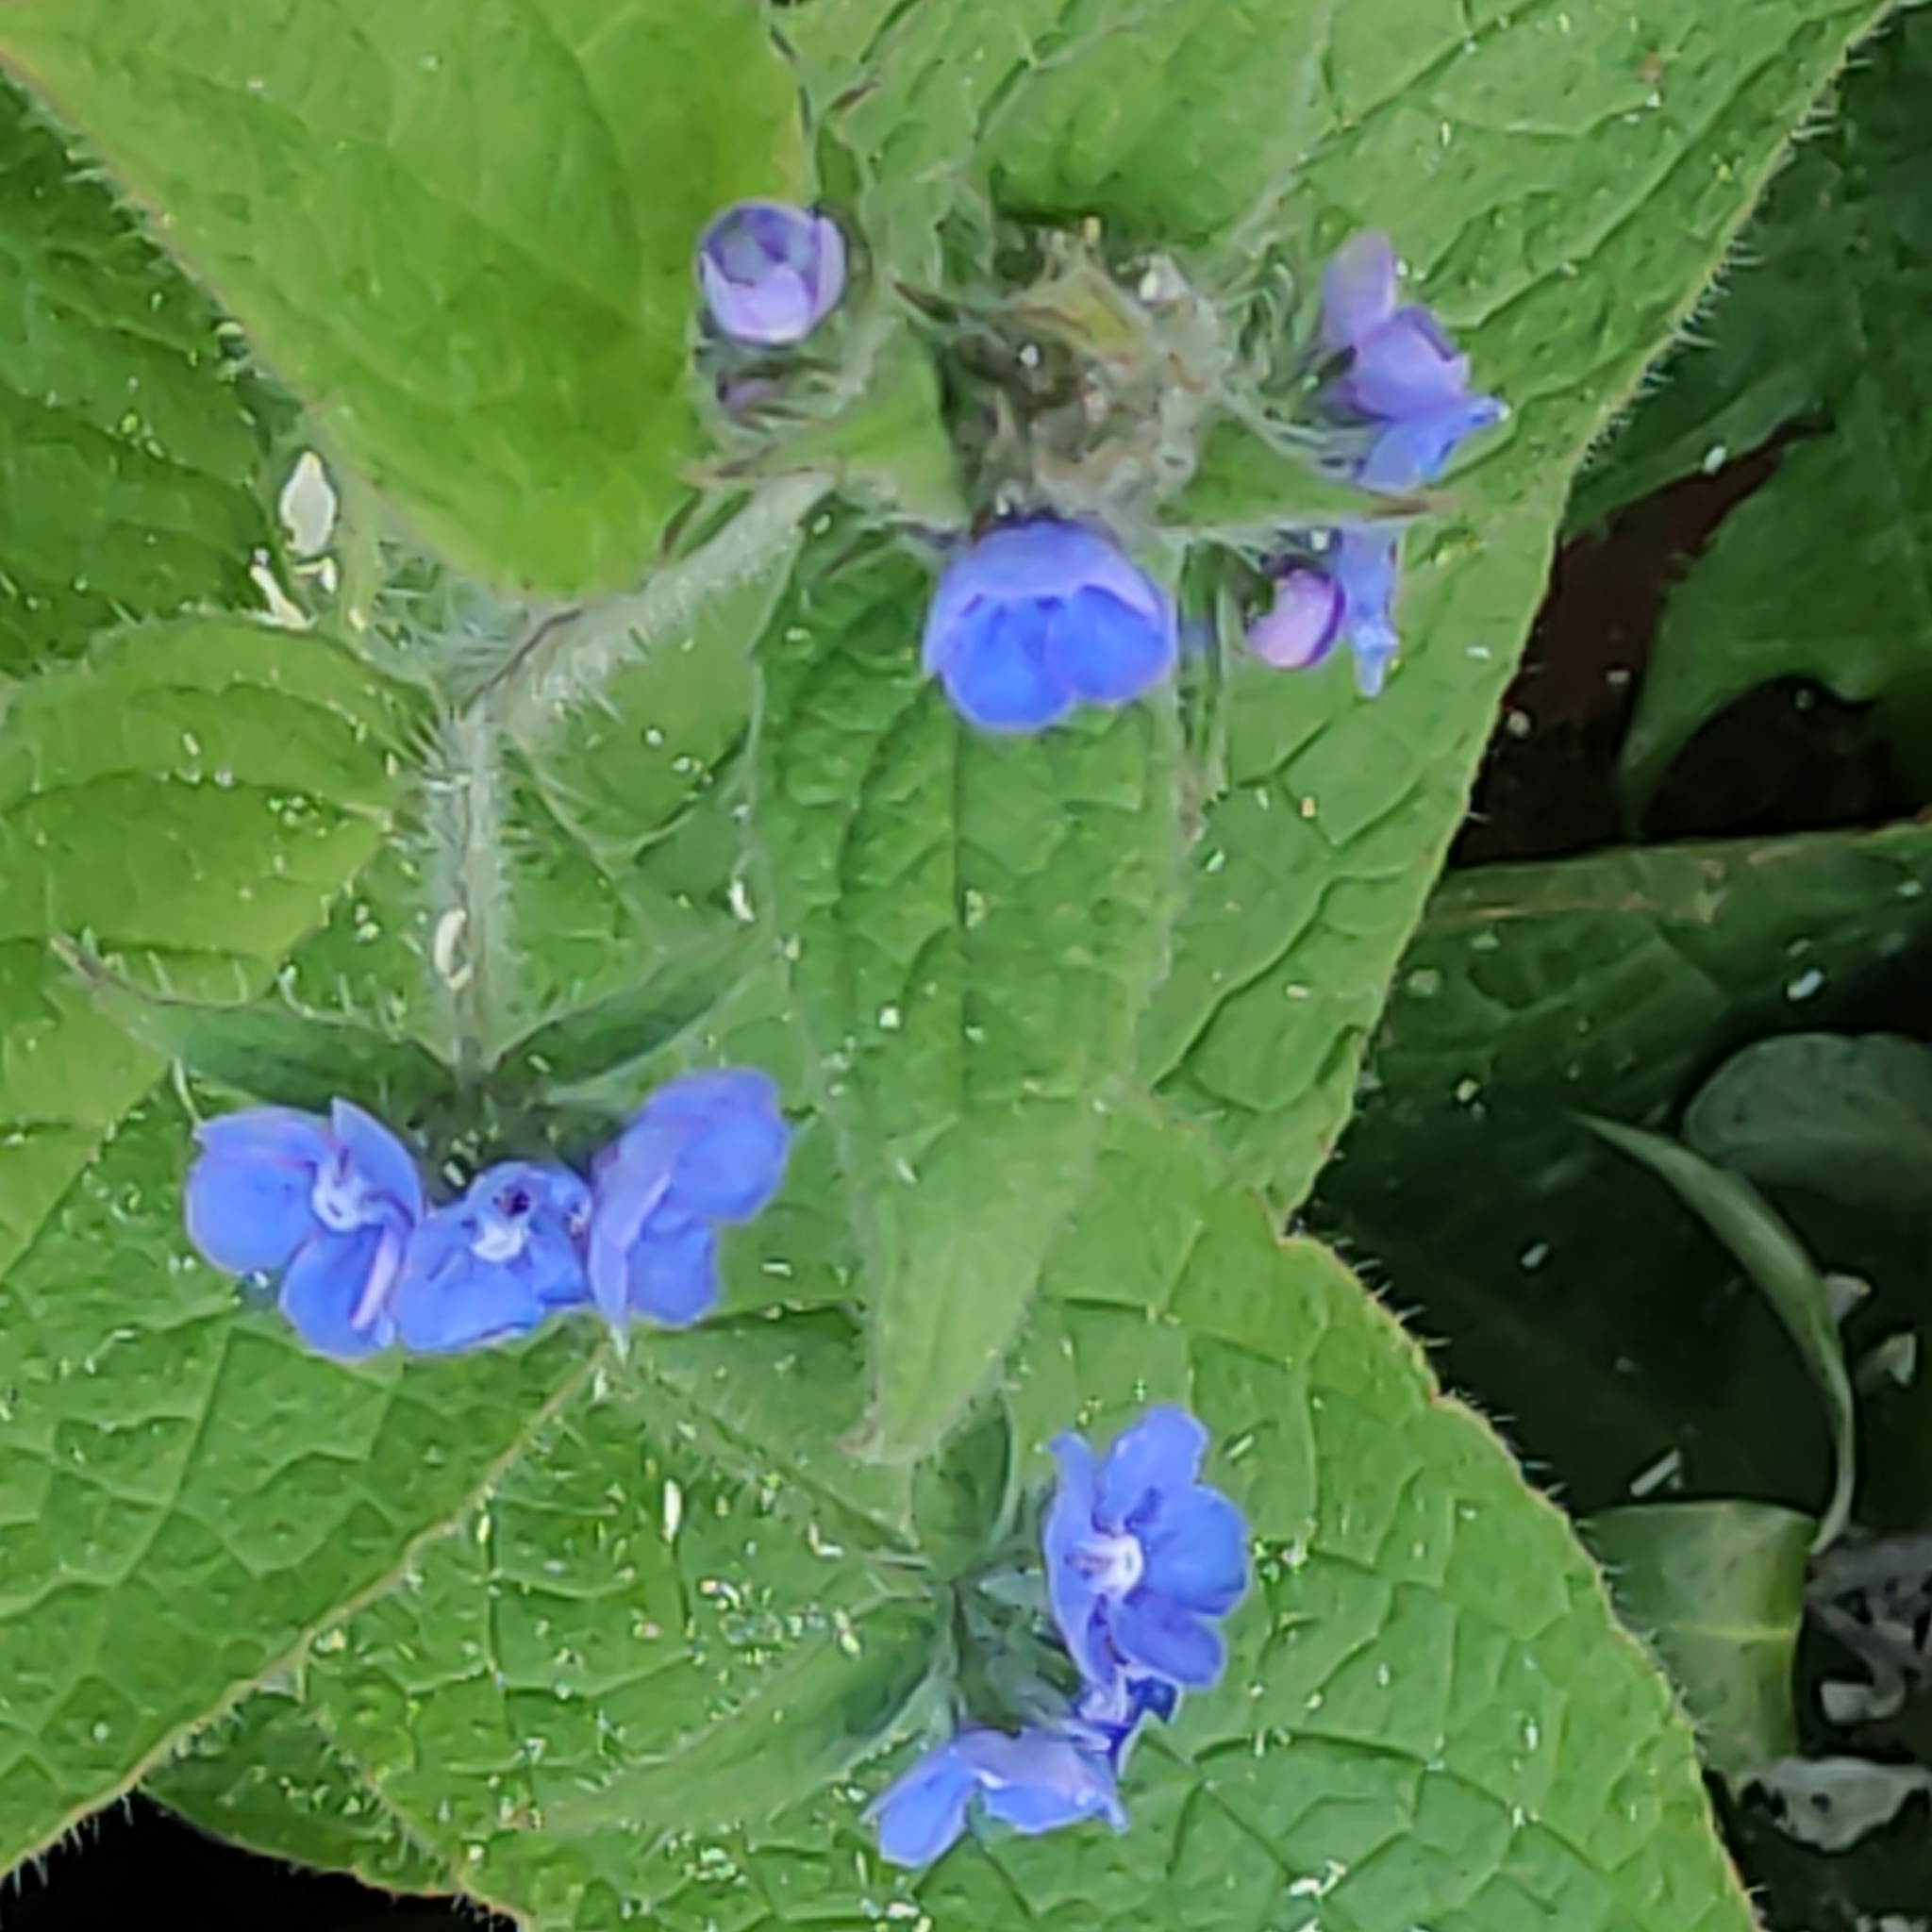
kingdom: Plantae
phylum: Tracheophyta
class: Magnoliopsida
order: Boraginales
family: Boraginaceae
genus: Pentaglottis
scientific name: Pentaglottis sempervirens
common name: Green alkanet
